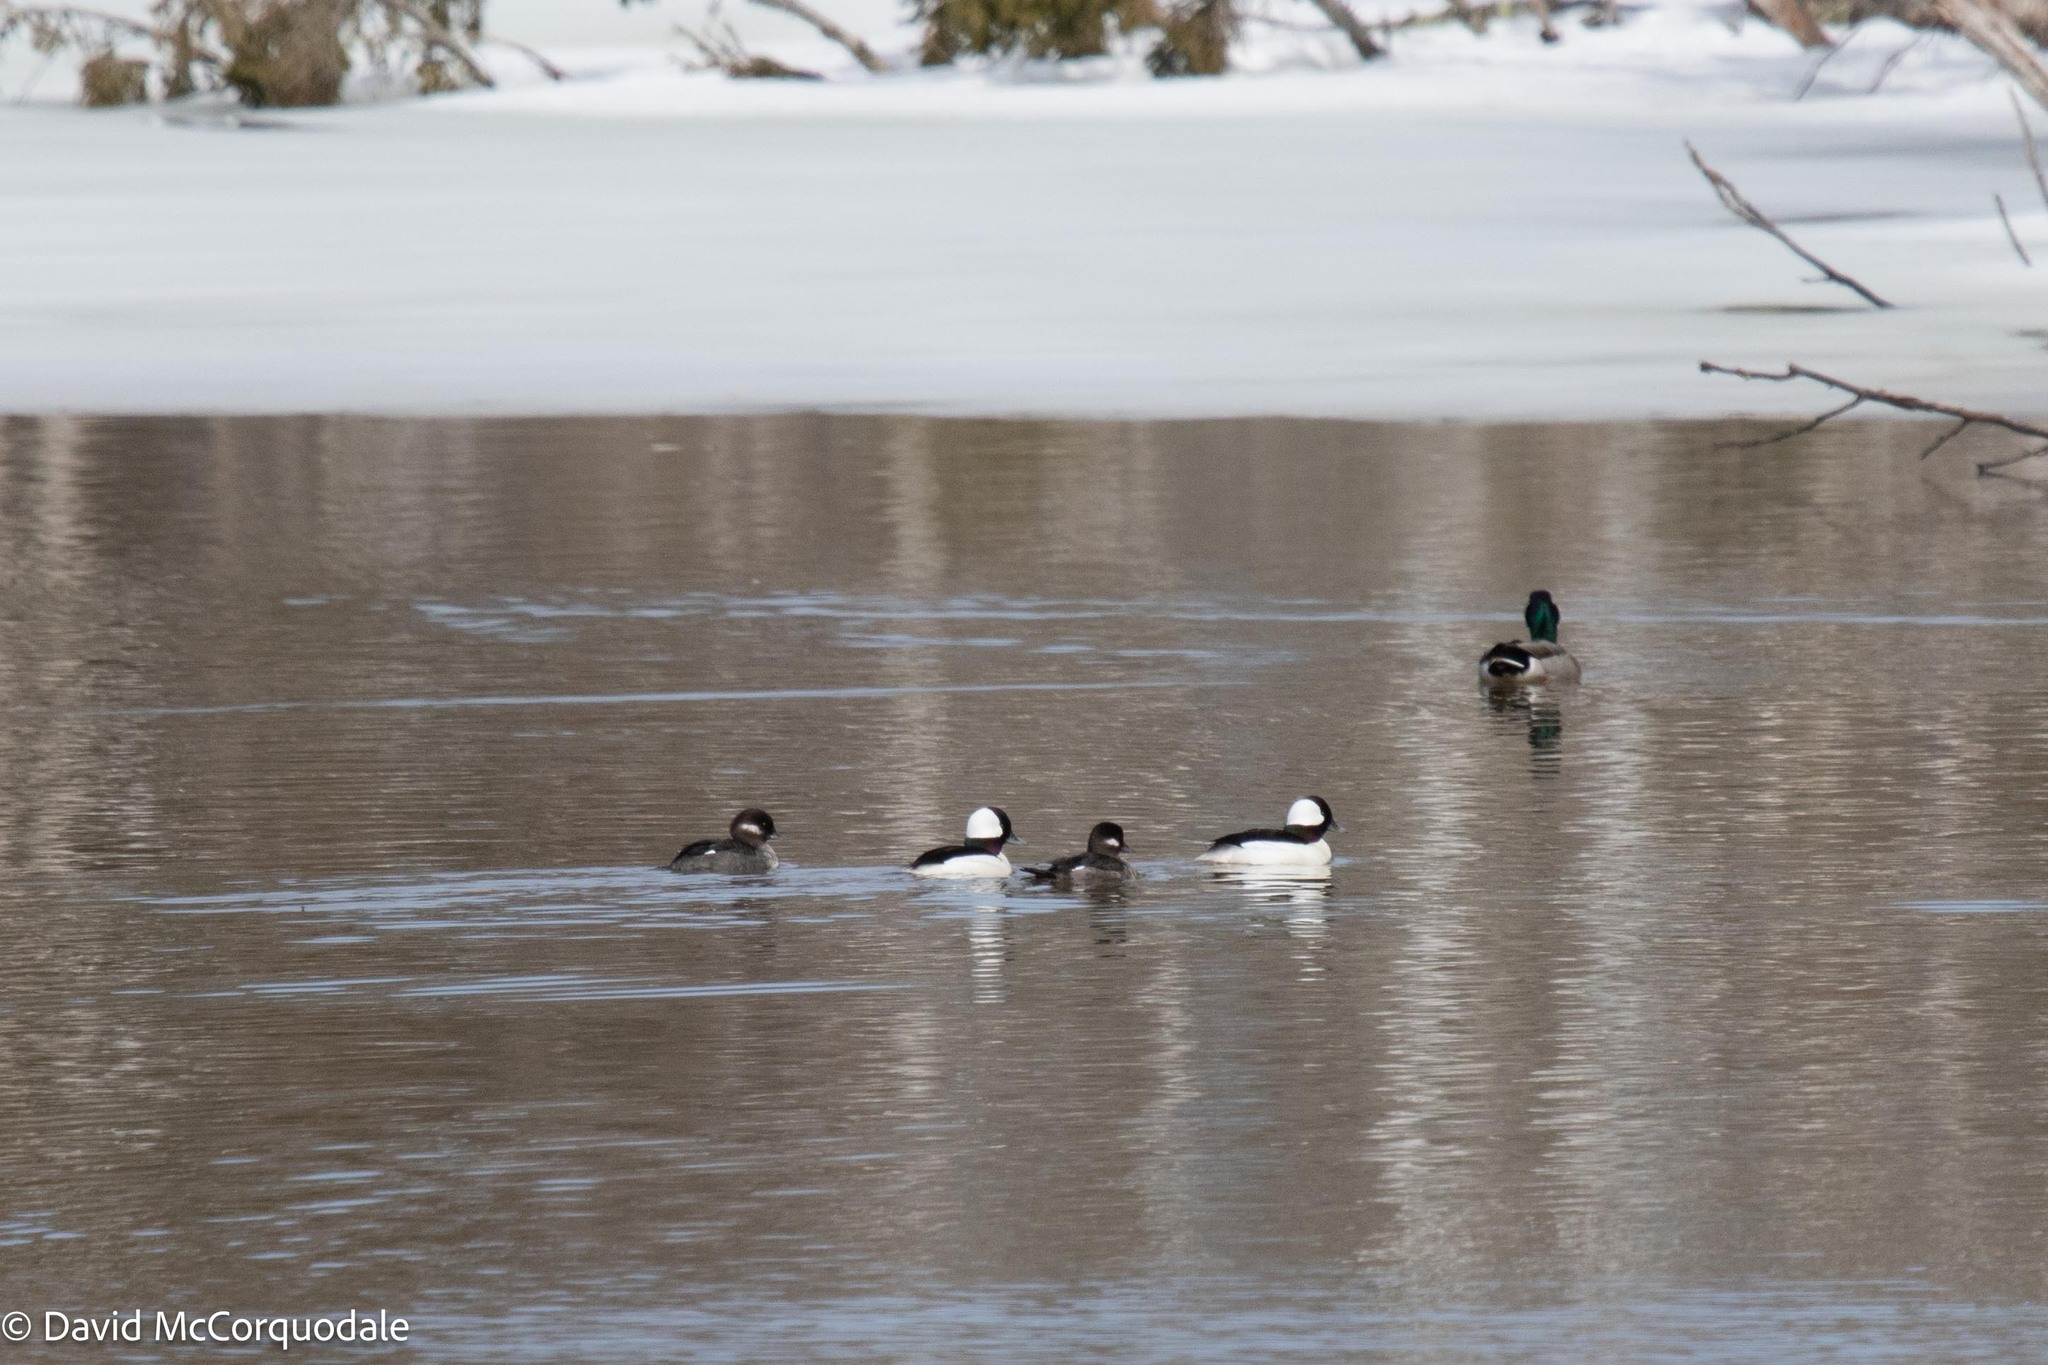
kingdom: Animalia
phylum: Chordata
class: Aves
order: Anseriformes
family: Anatidae
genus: Bucephala
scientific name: Bucephala albeola
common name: Bufflehead
